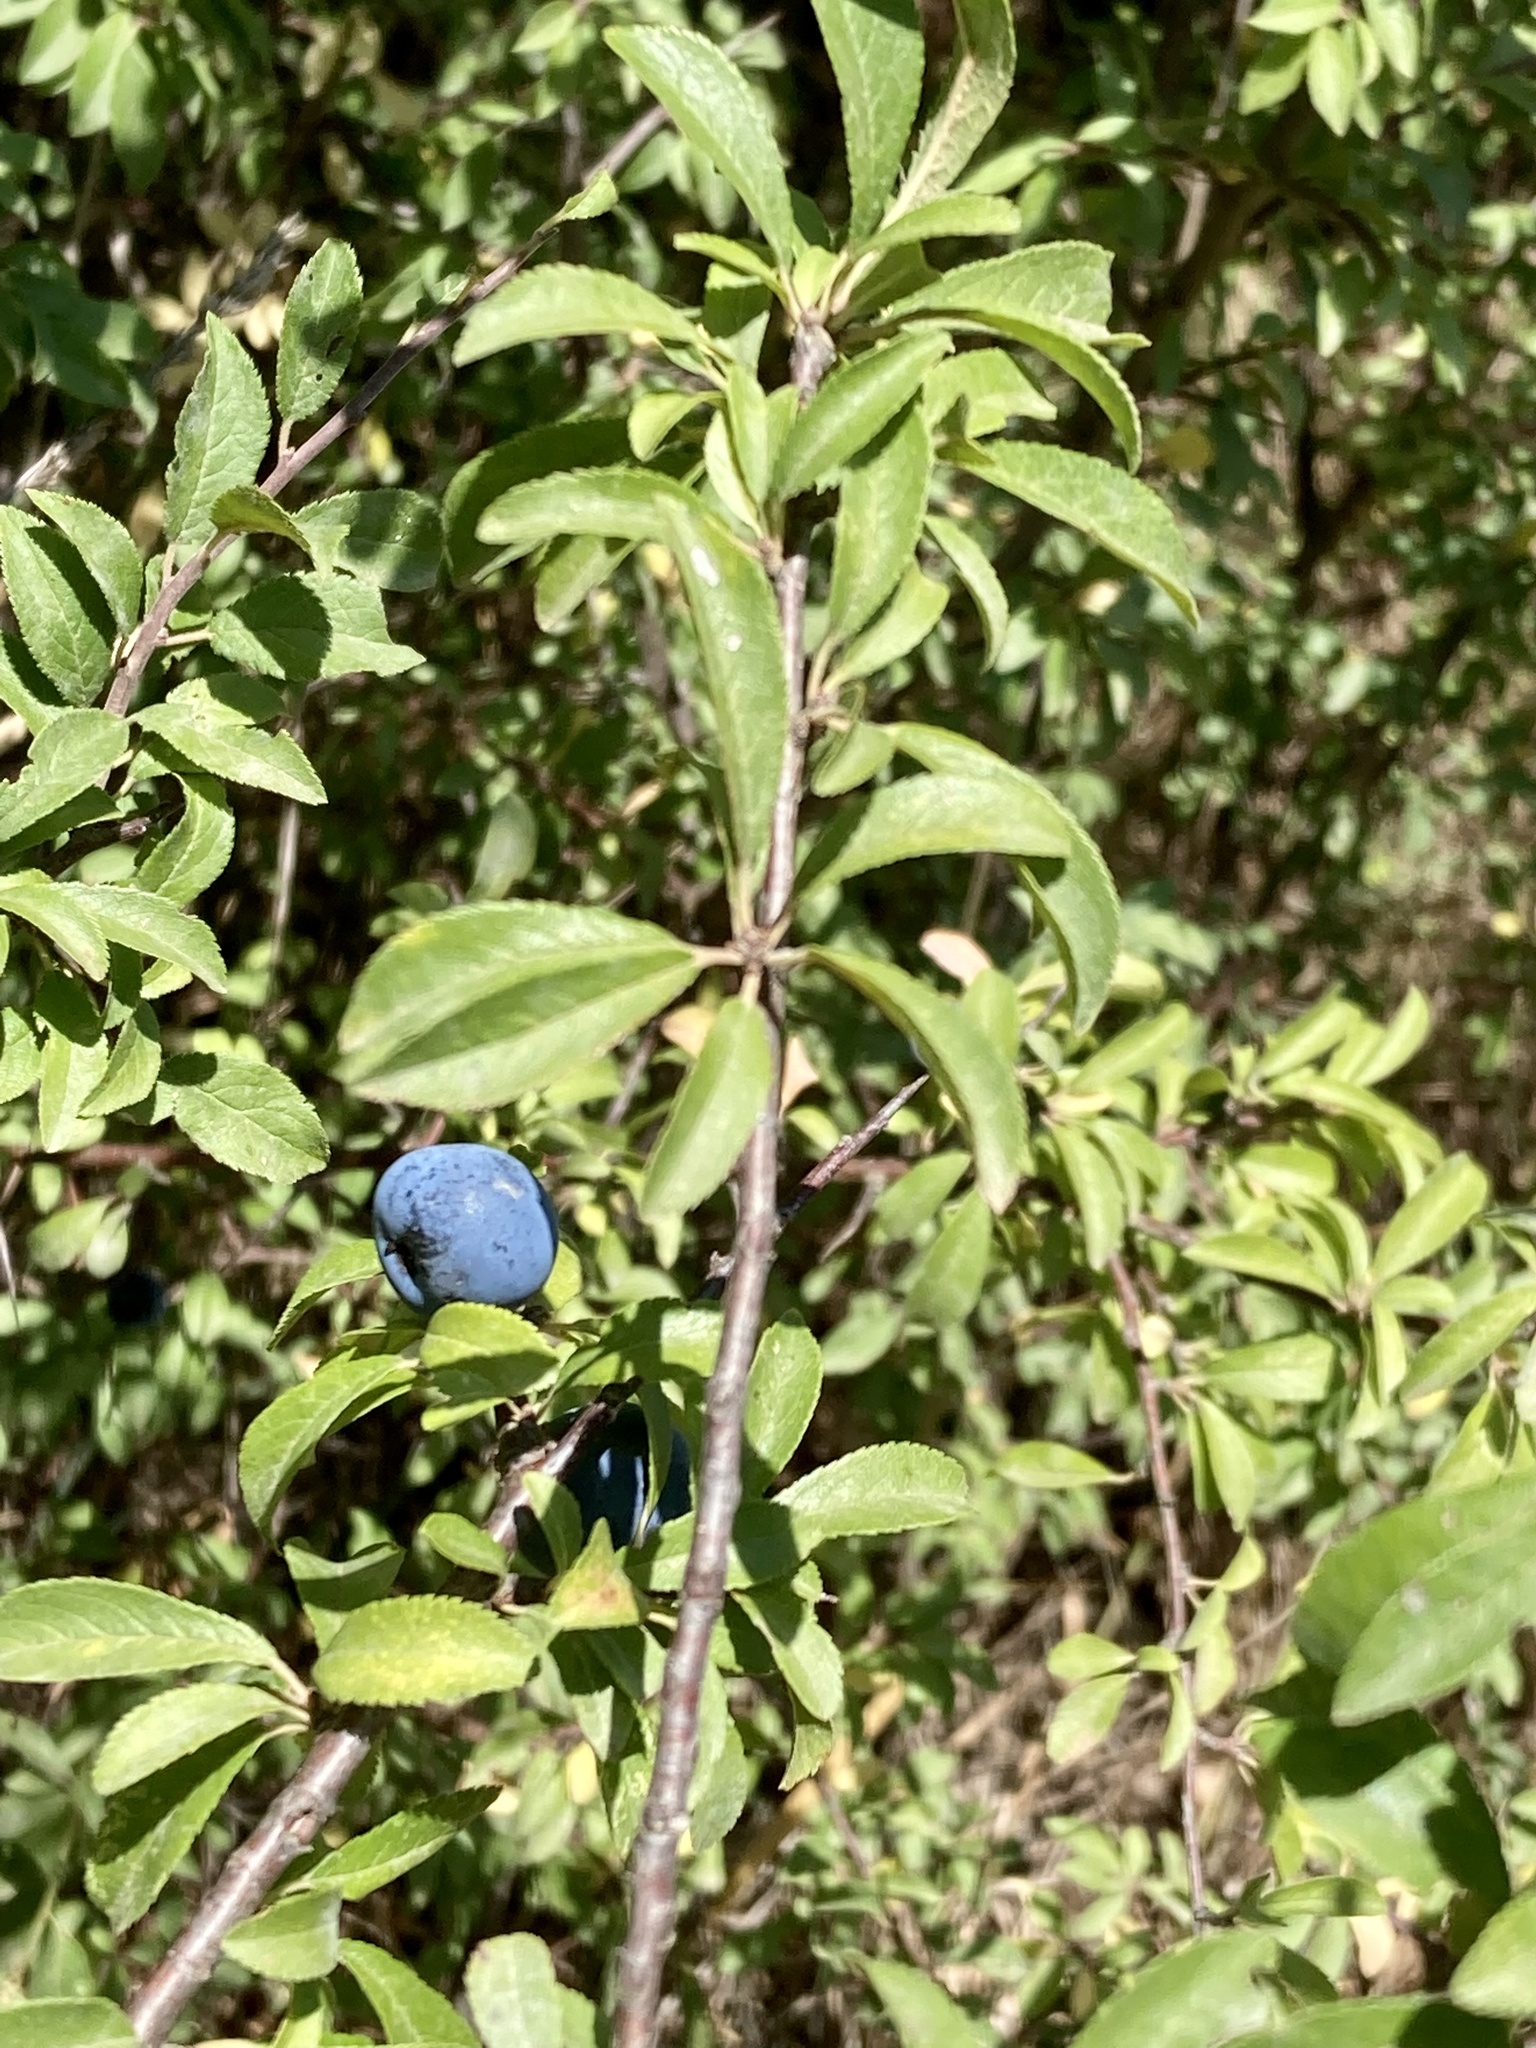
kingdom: Plantae
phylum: Tracheophyta
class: Magnoliopsida
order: Rosales
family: Rosaceae
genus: Prunus
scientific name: Prunus spinosa
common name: Blackthorn
